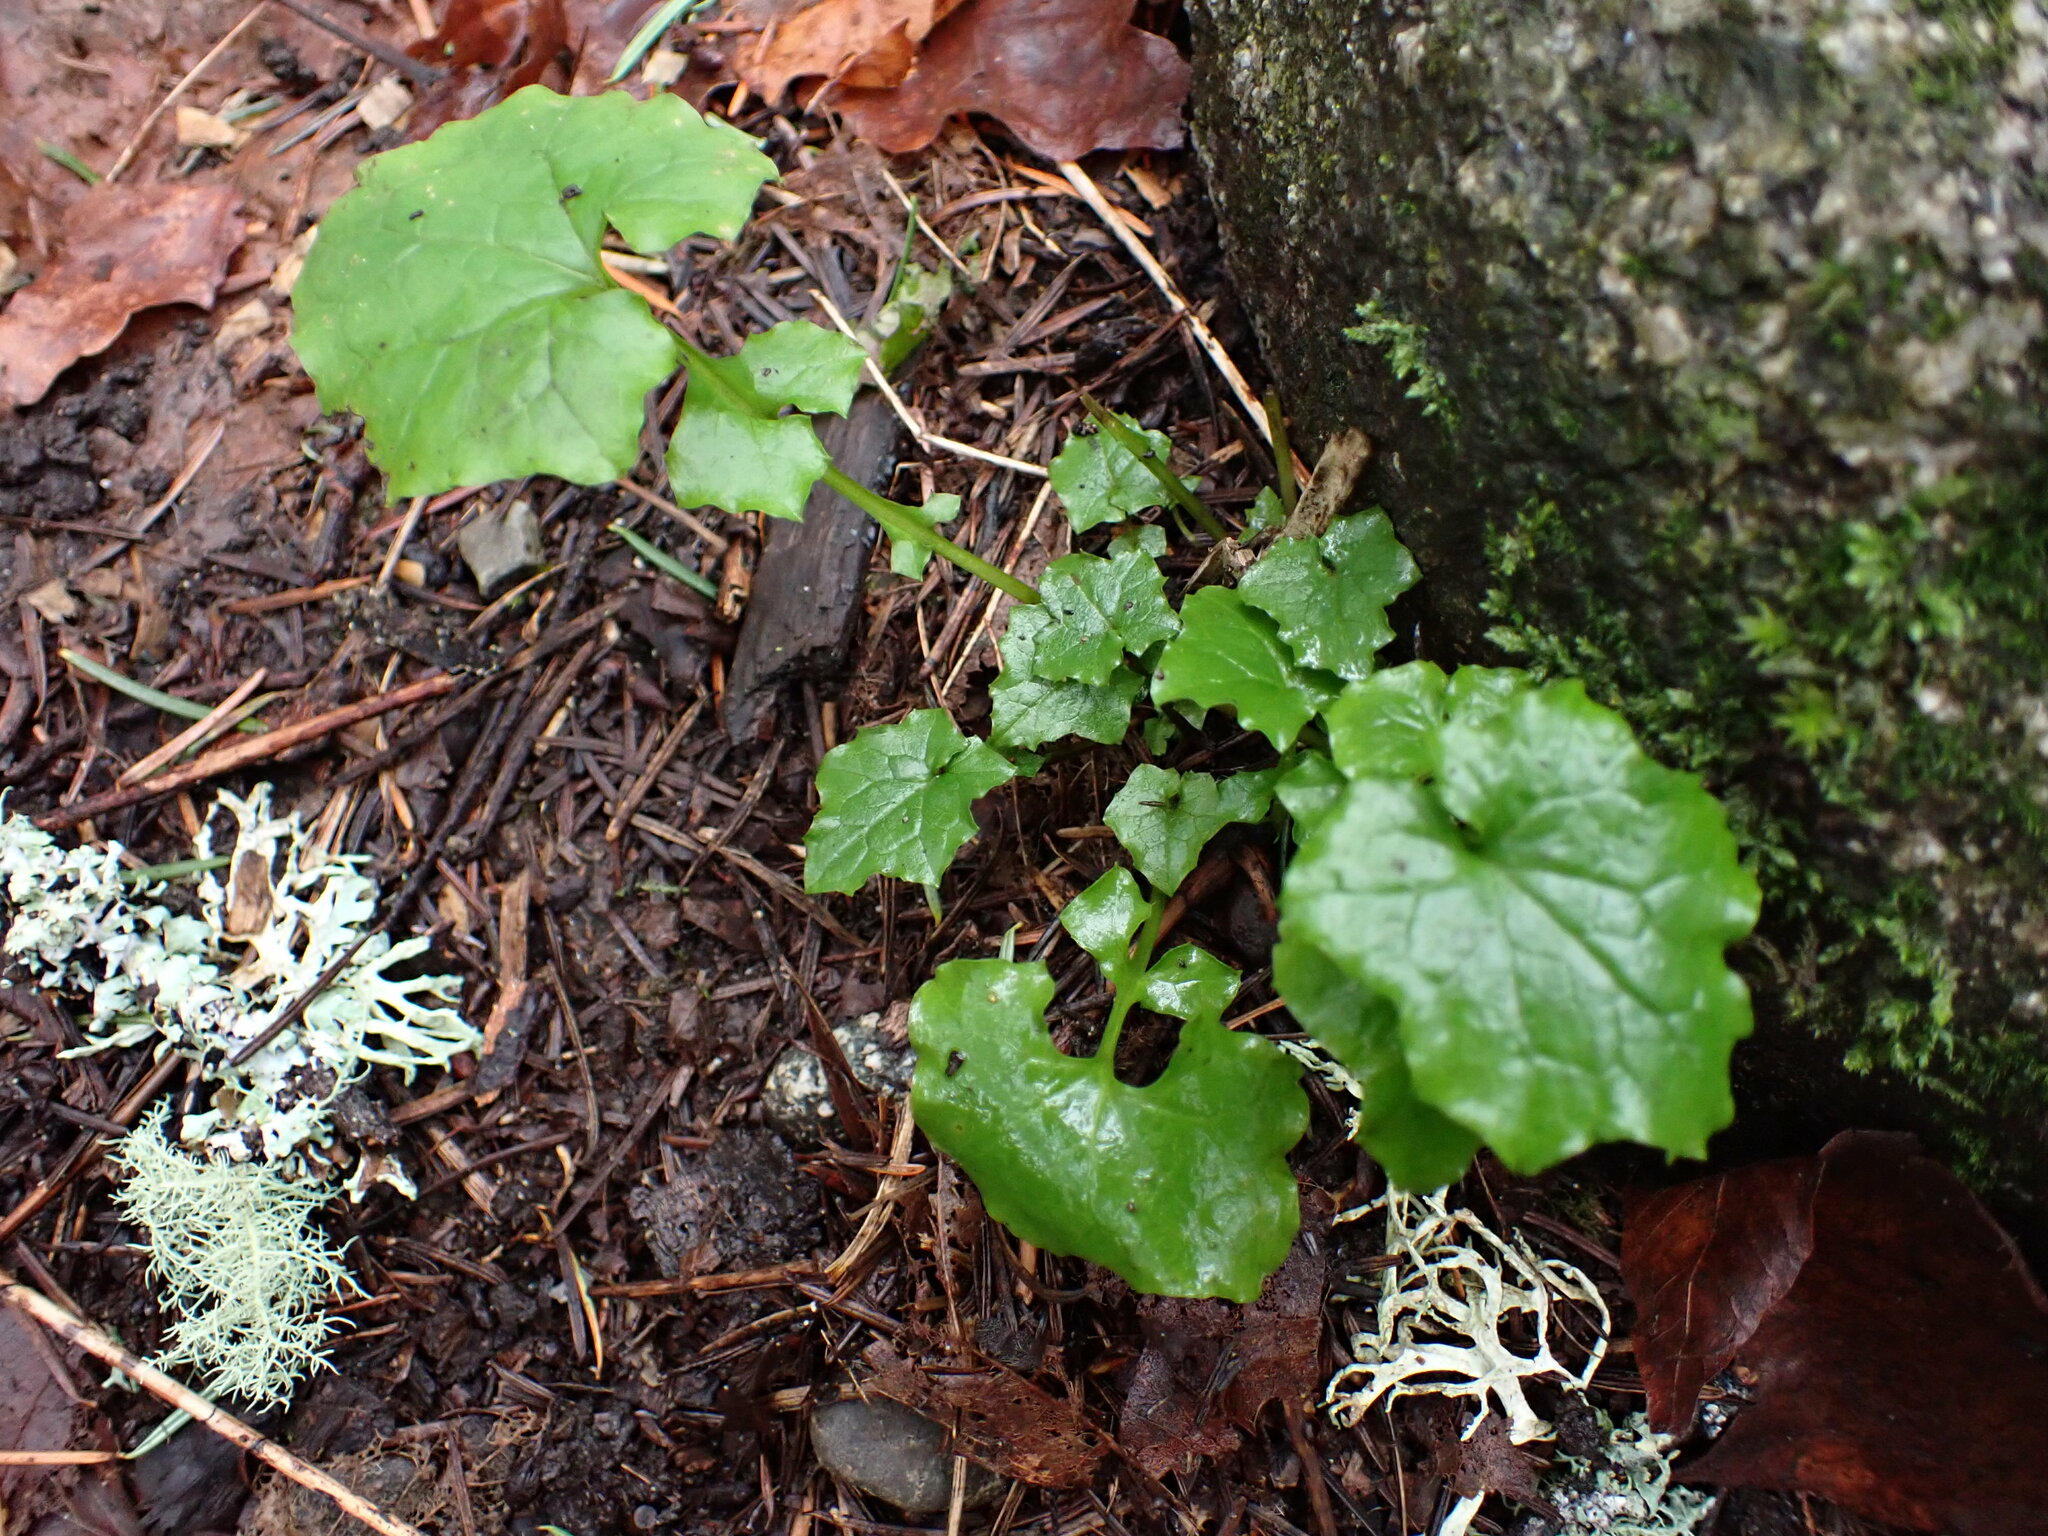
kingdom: Plantae
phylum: Tracheophyta
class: Magnoliopsida
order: Asterales
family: Asteraceae
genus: Mycelis
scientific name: Mycelis muralis
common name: Wall lettuce
